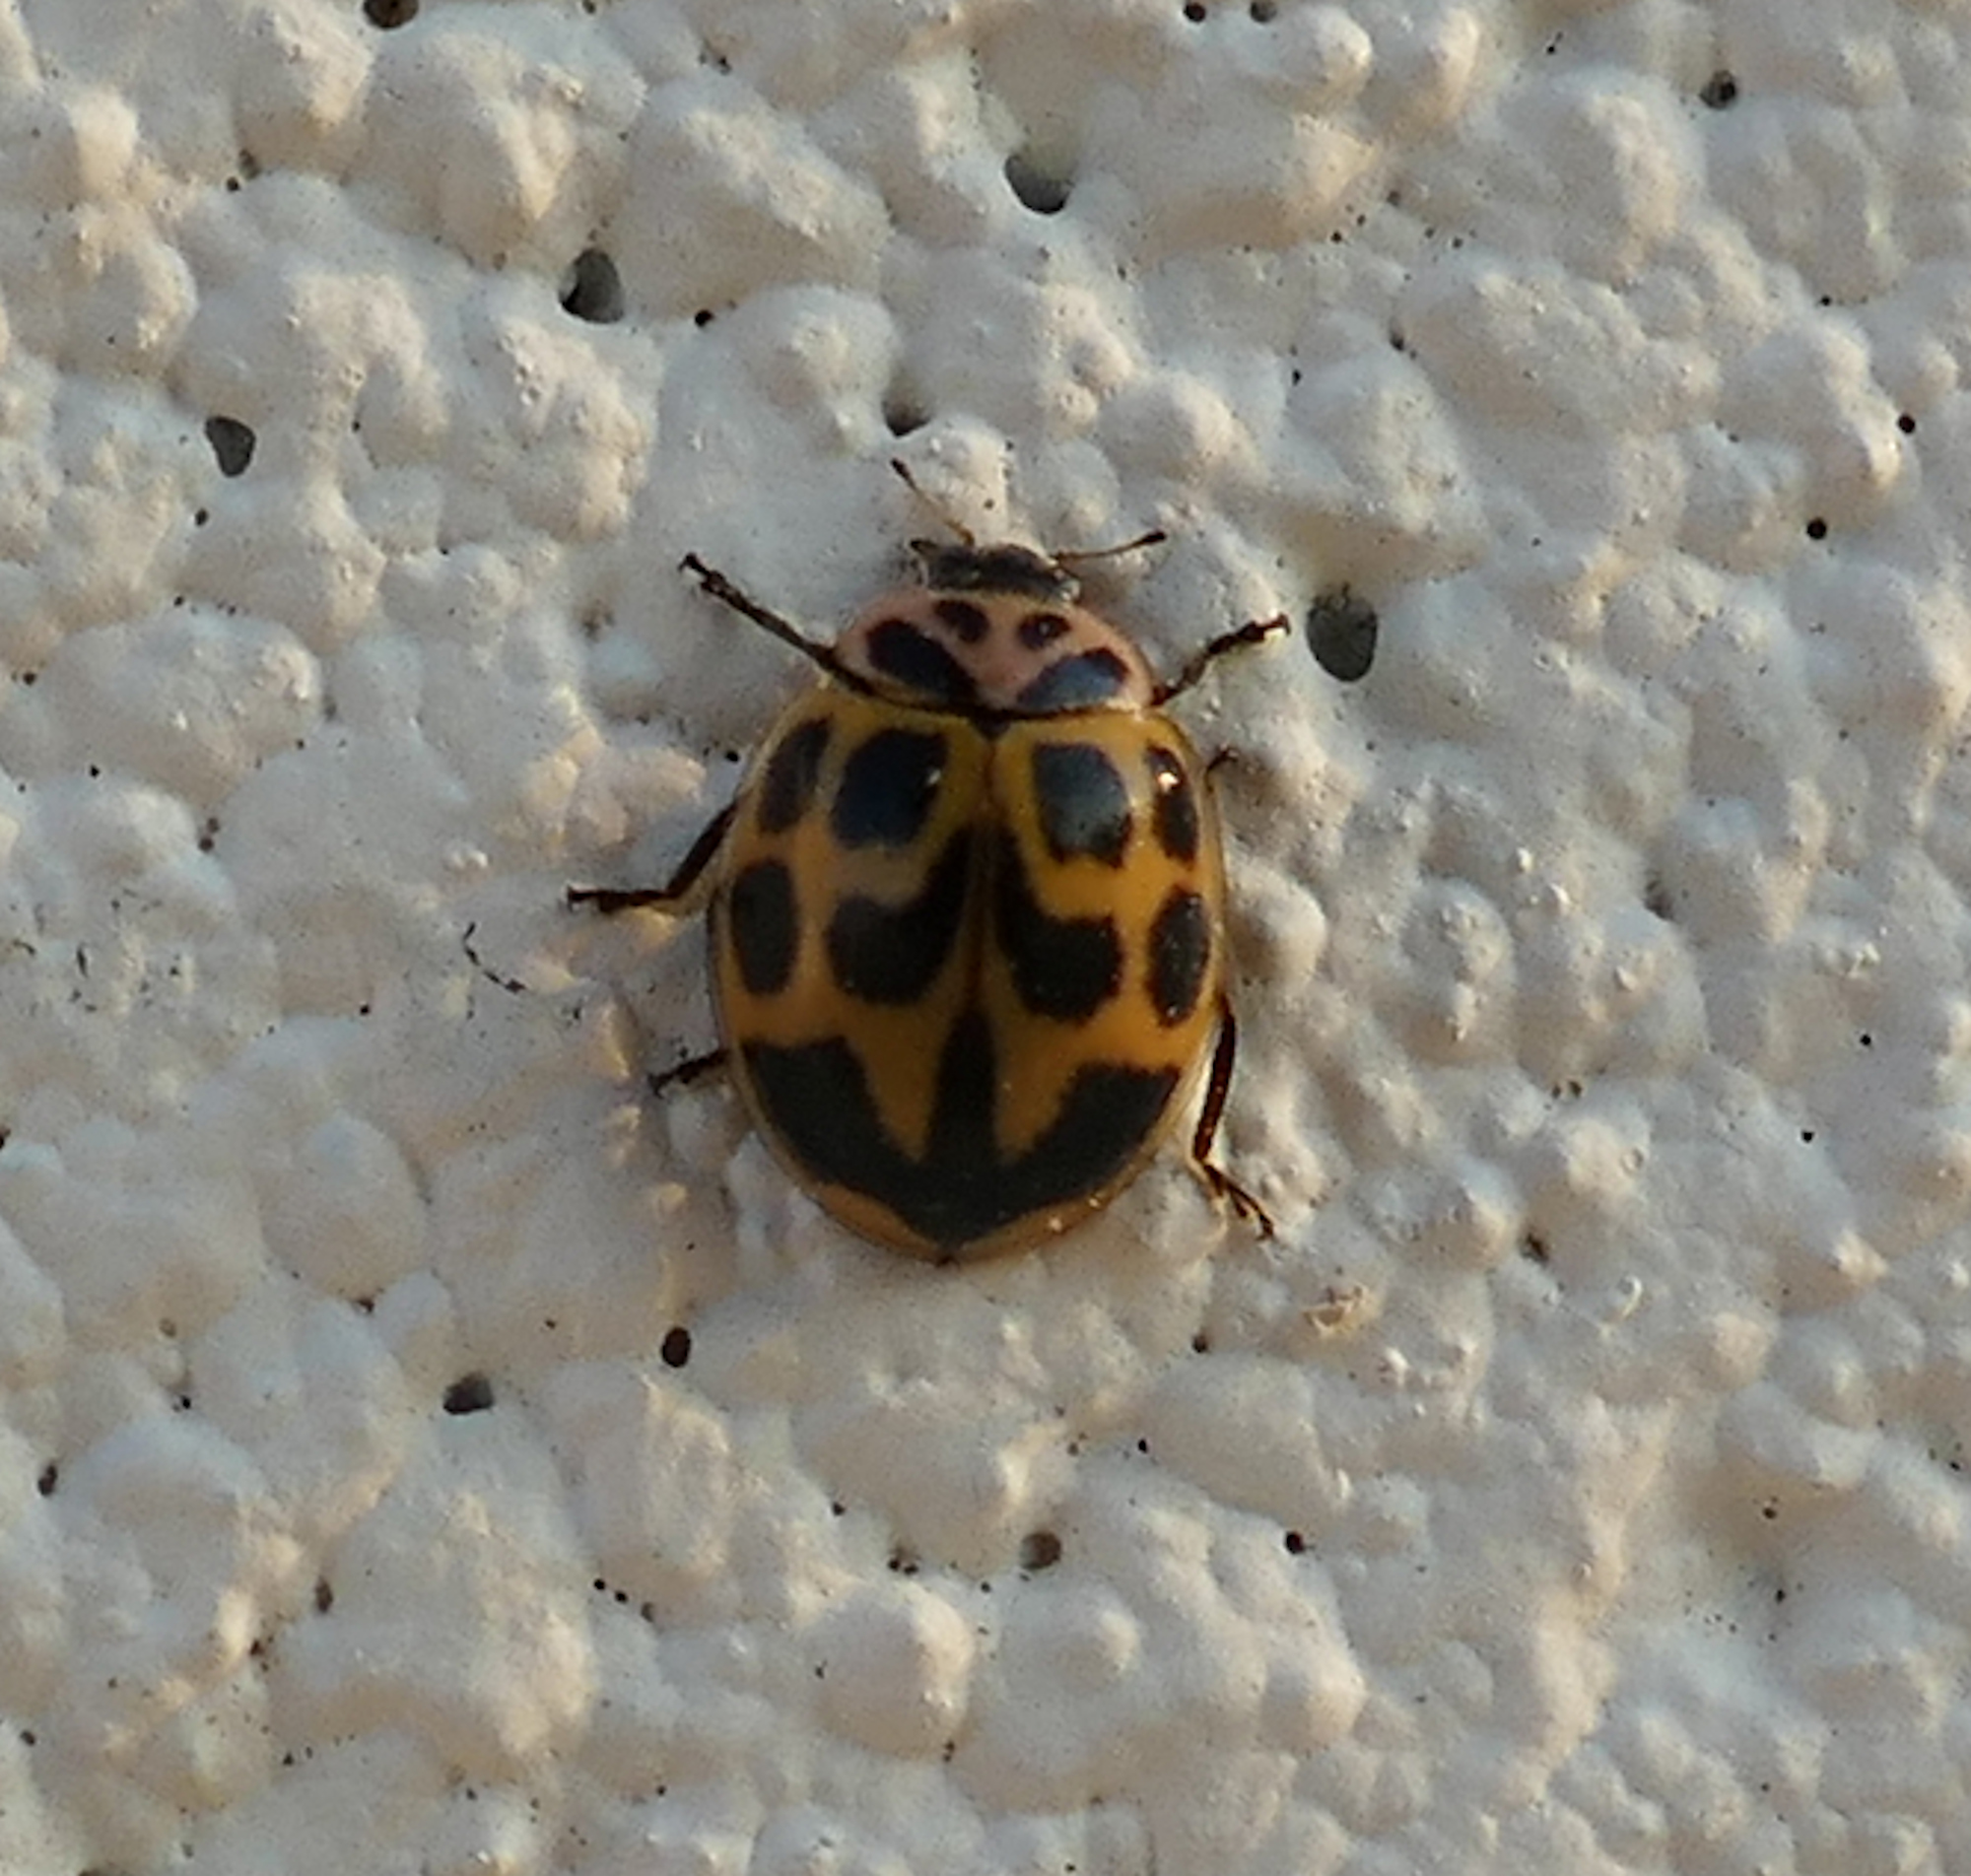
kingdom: Animalia
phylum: Arthropoda
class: Insecta
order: Coleoptera
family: Coccinellidae
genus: Neoharmonia
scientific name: Neoharmonia venusta
